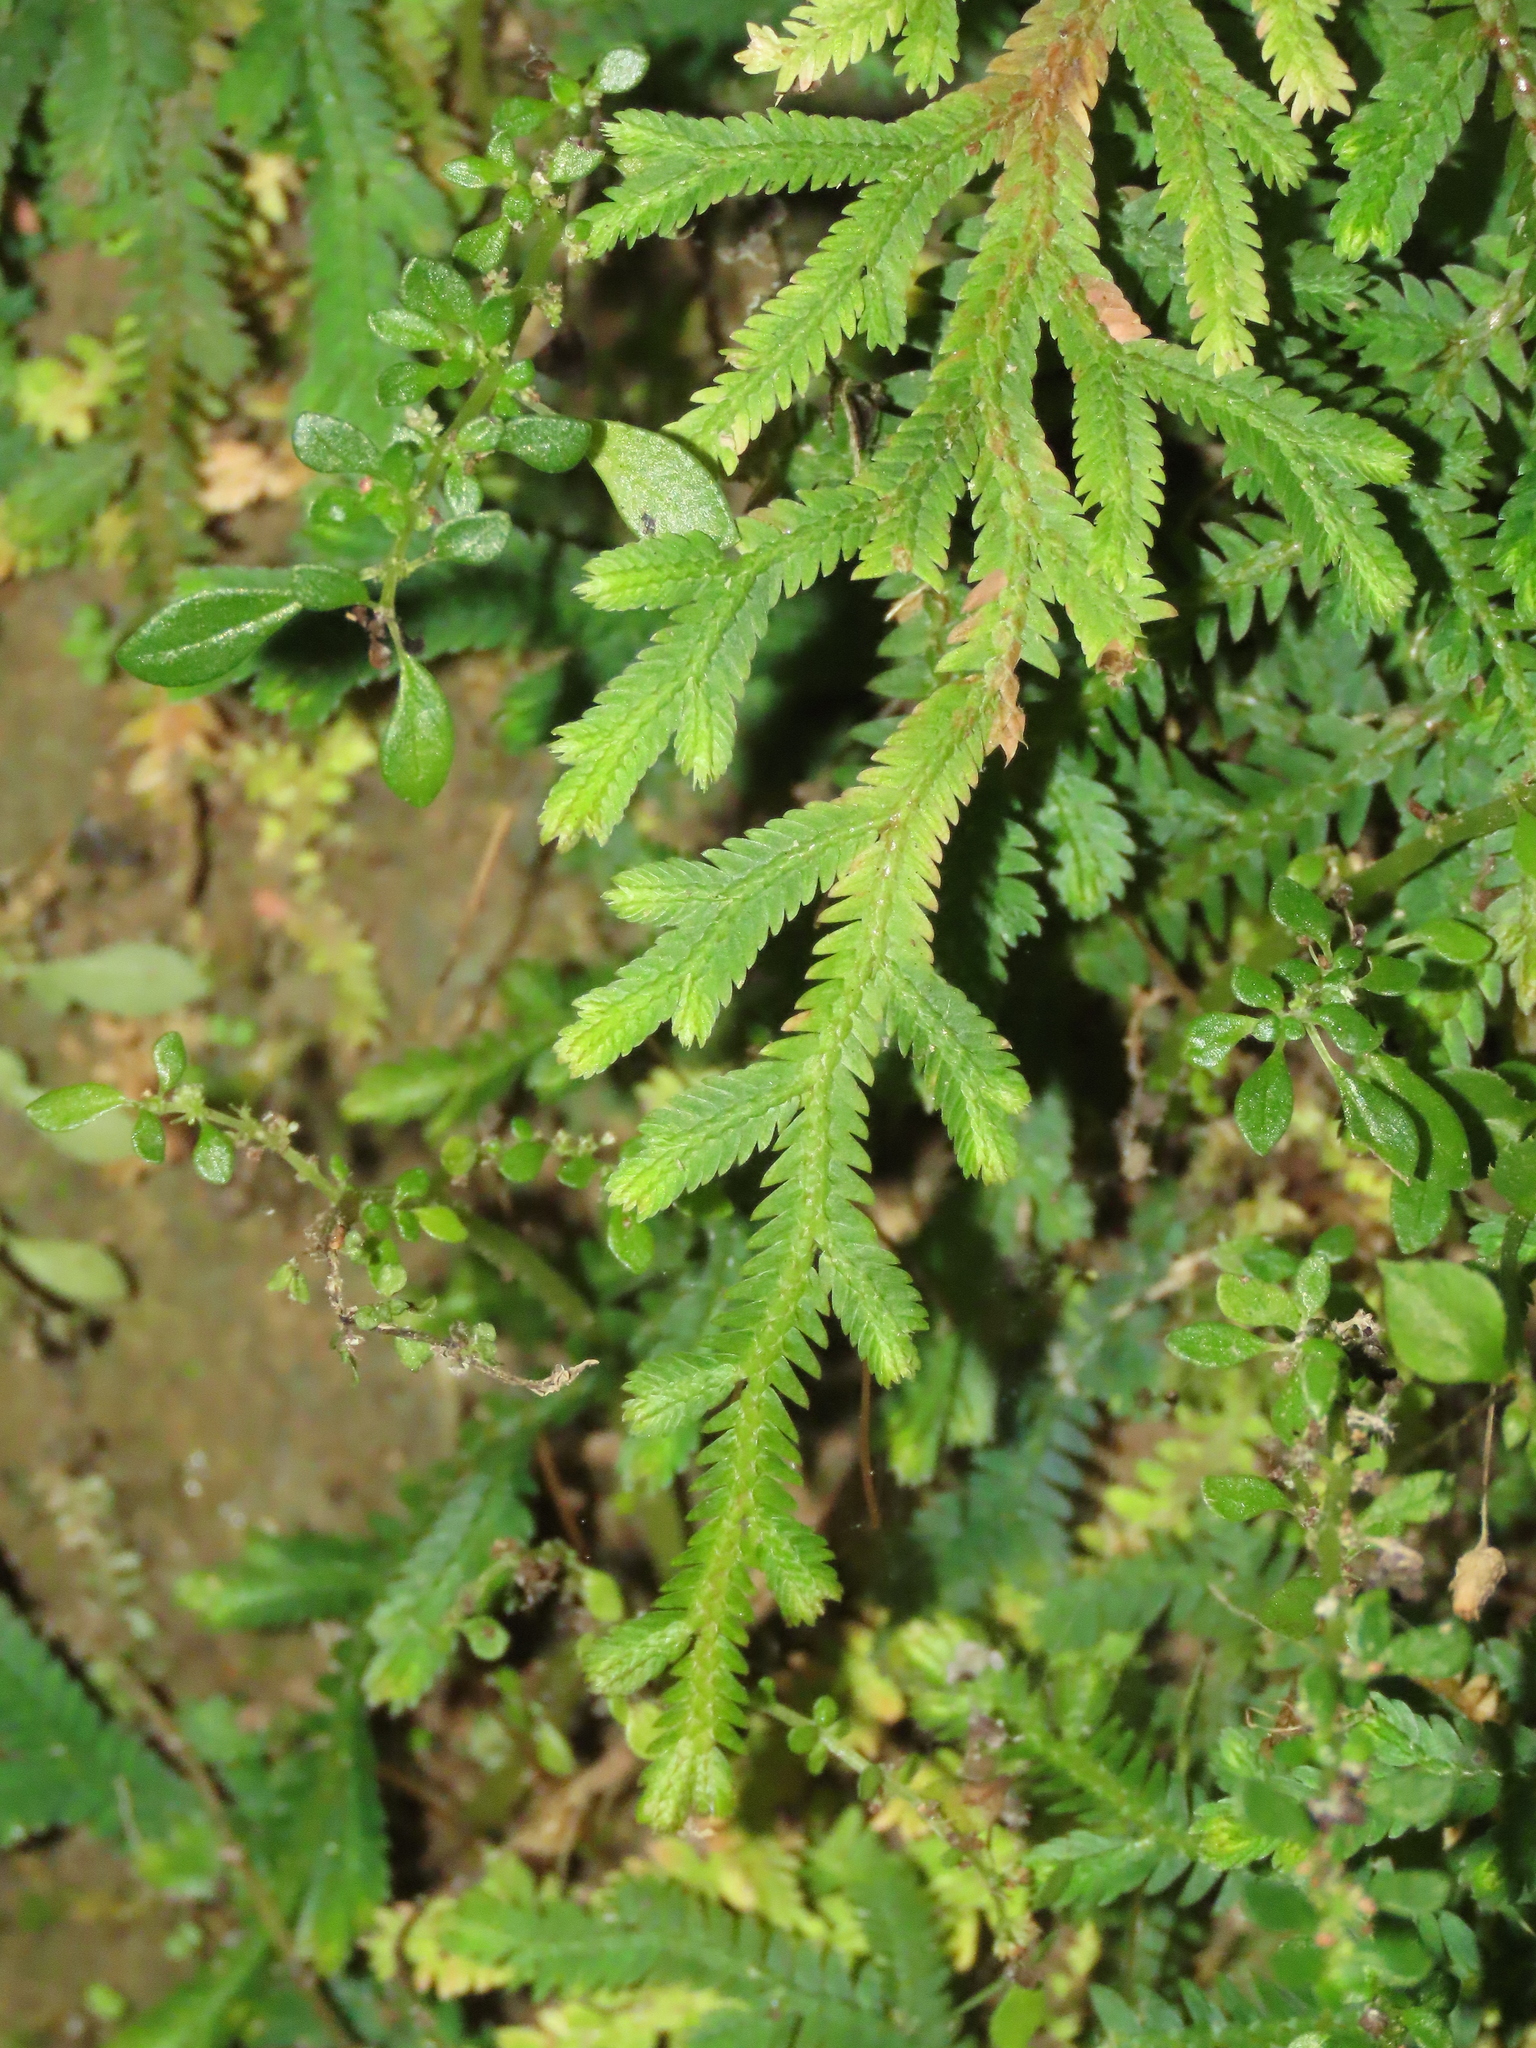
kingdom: Plantae
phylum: Tracheophyta
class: Lycopodiopsida
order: Selaginellales
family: Selaginellaceae
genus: Selaginella
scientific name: Selaginella repanda
